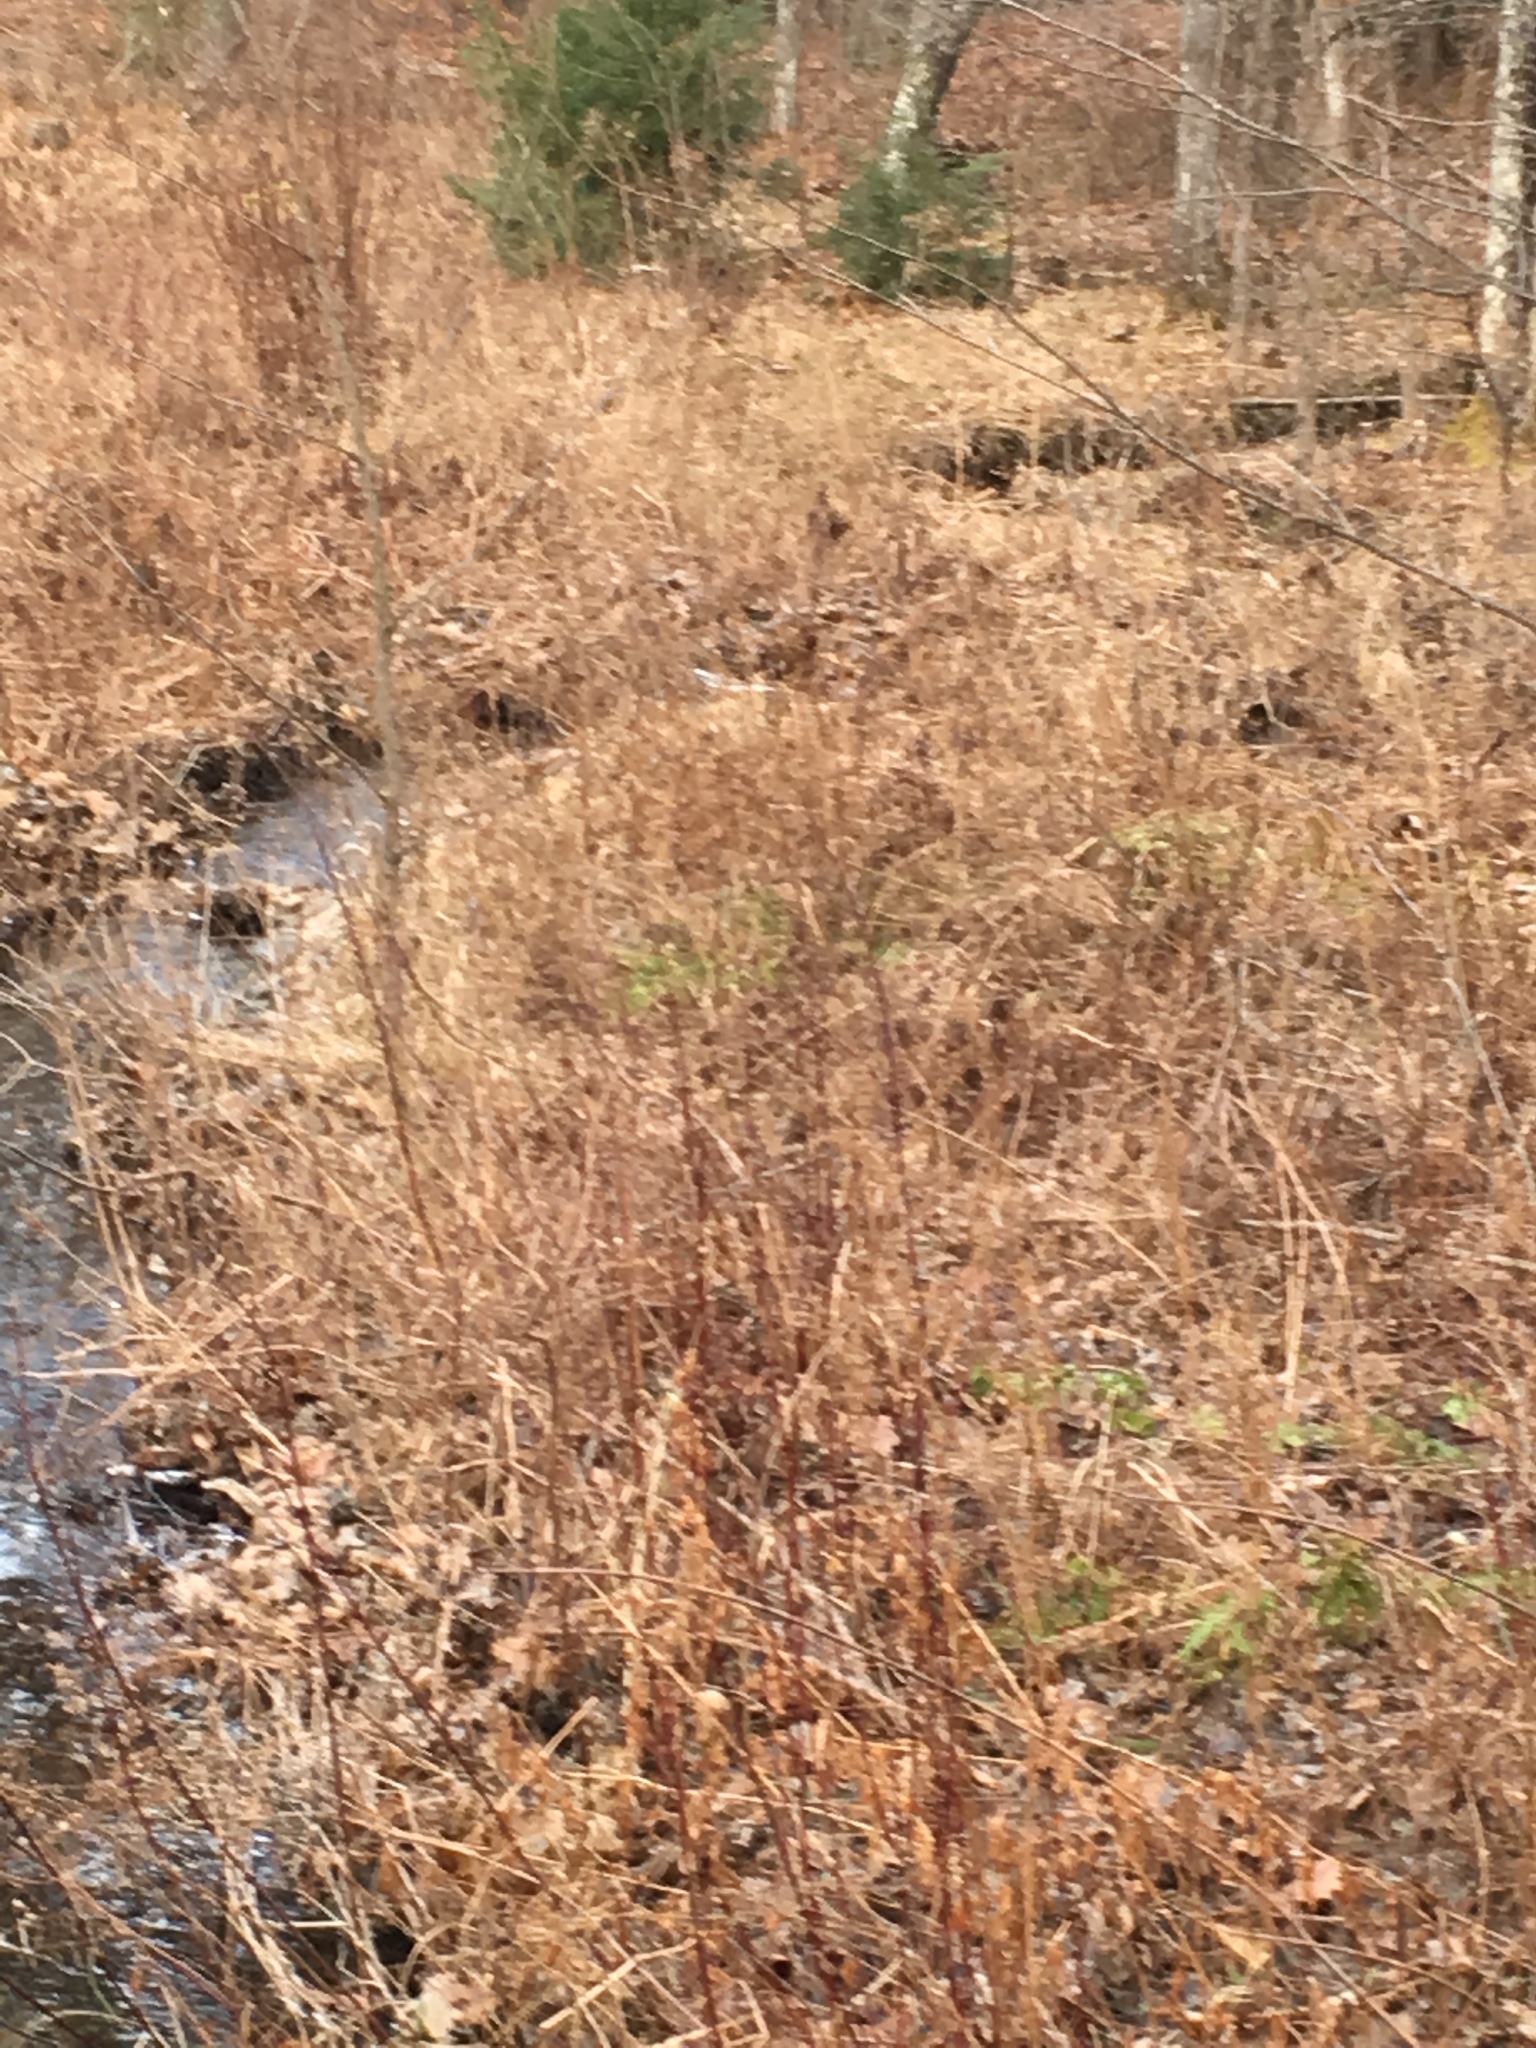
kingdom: Plantae
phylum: Tracheophyta
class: Magnoliopsida
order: Cornales
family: Cornaceae
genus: Cornus
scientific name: Cornus sericea
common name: Red-osier dogwood
